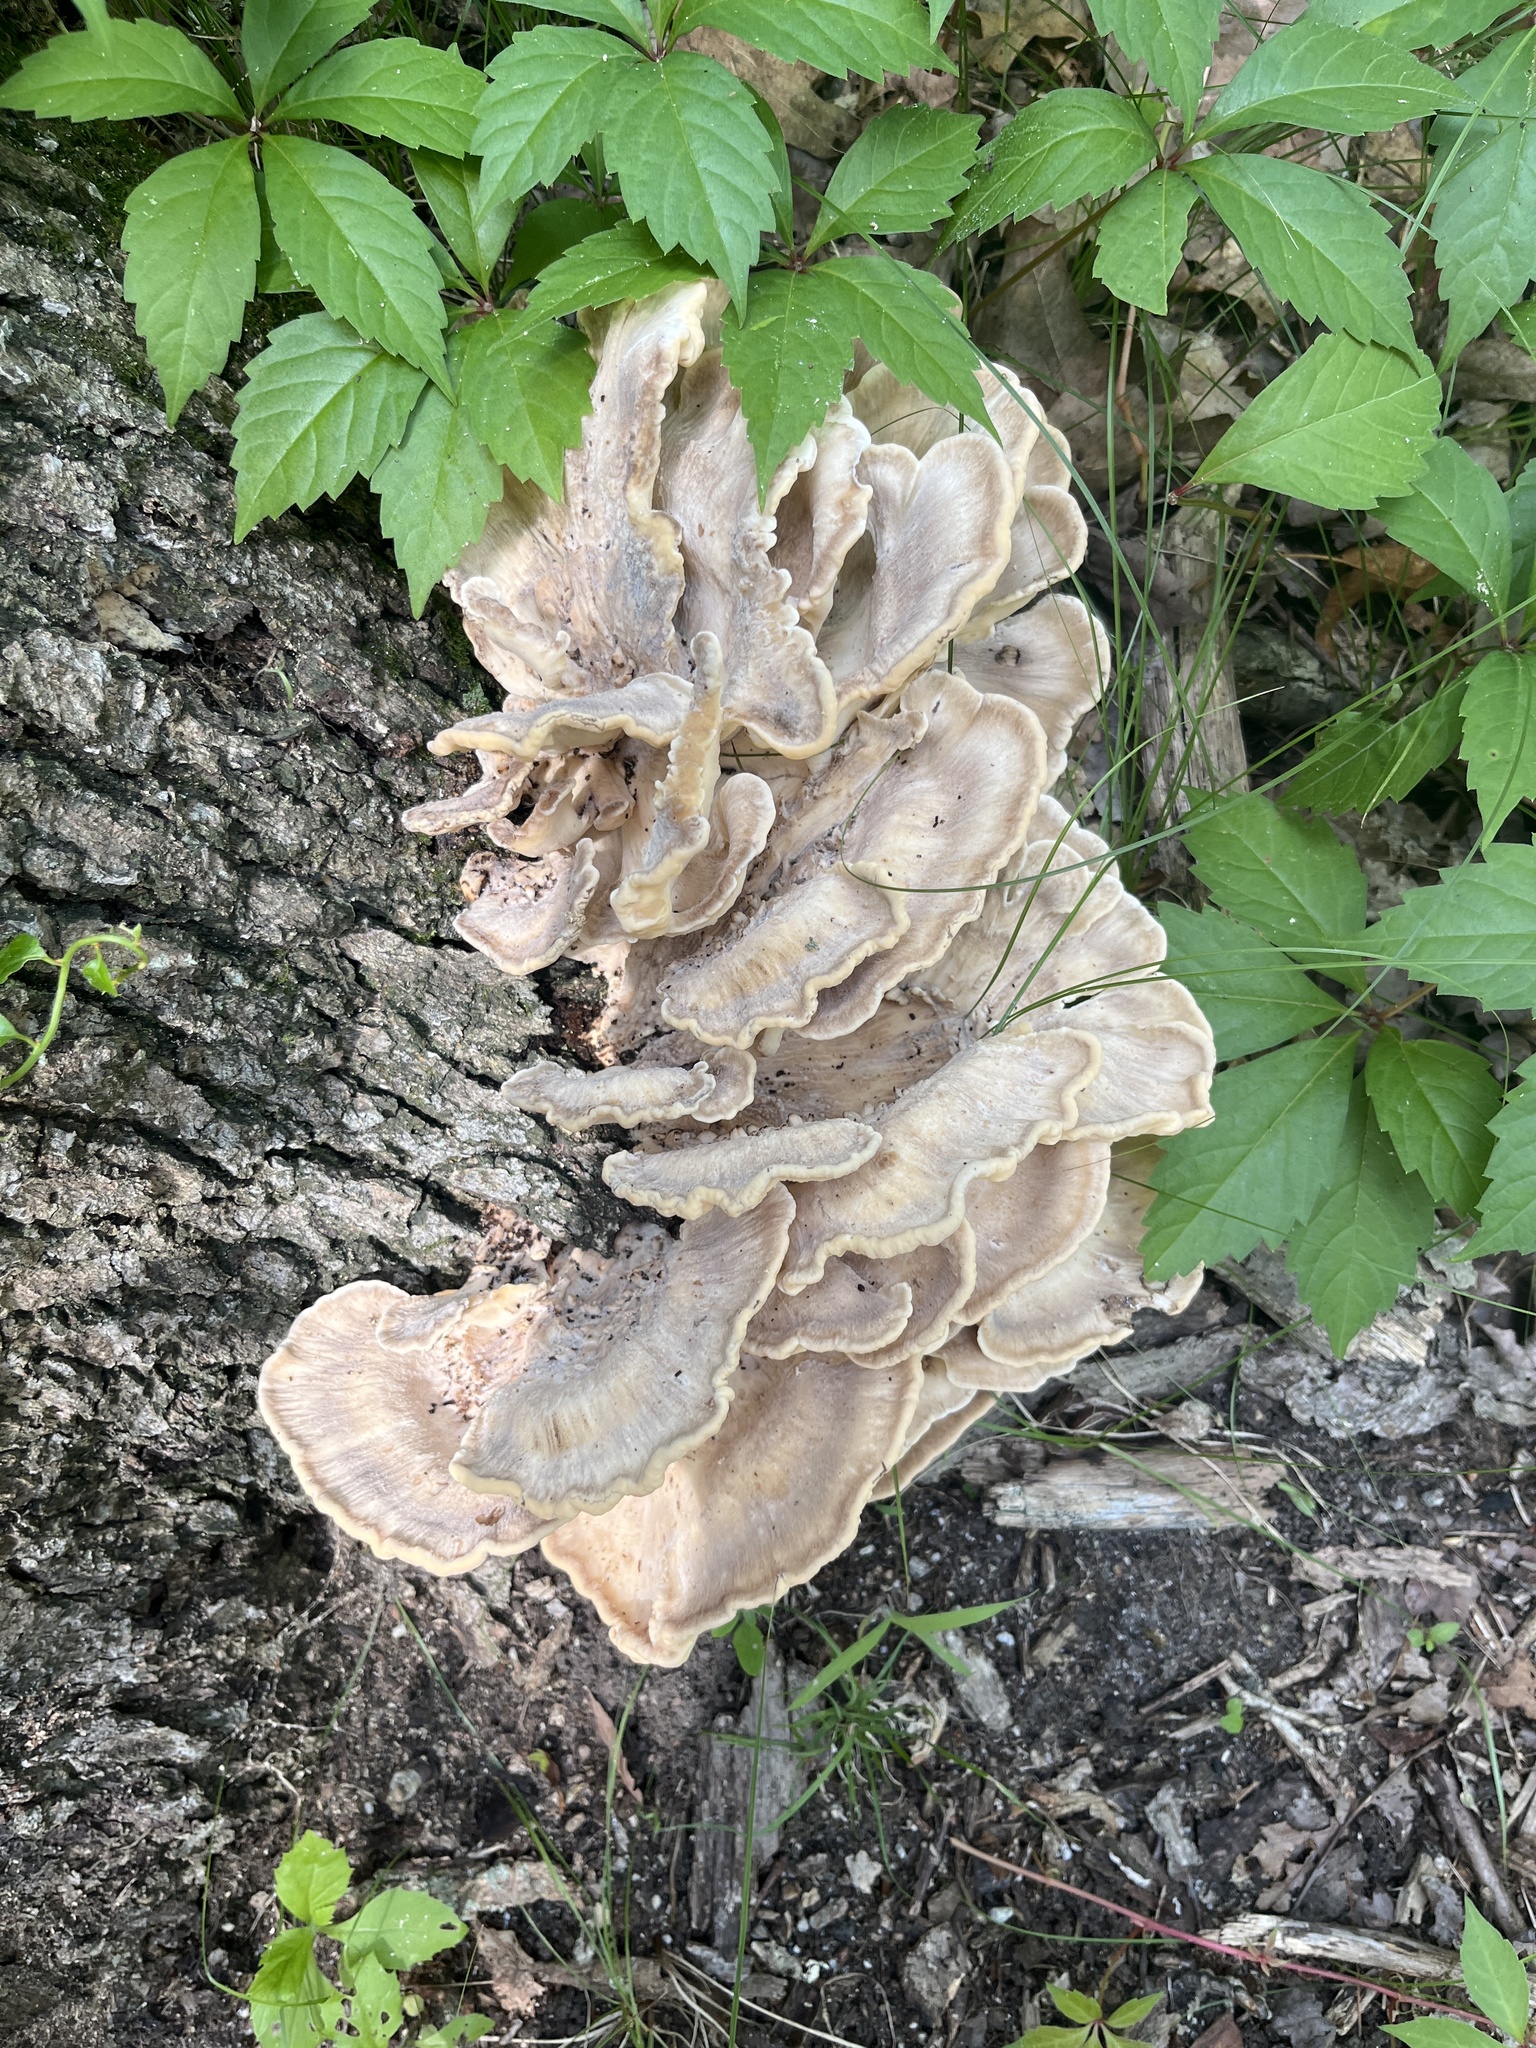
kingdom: Fungi
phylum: Basidiomycota
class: Agaricomycetes
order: Polyporales
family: Meripilaceae
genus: Meripilus
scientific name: Meripilus sumstinei
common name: Black-staining polypore
